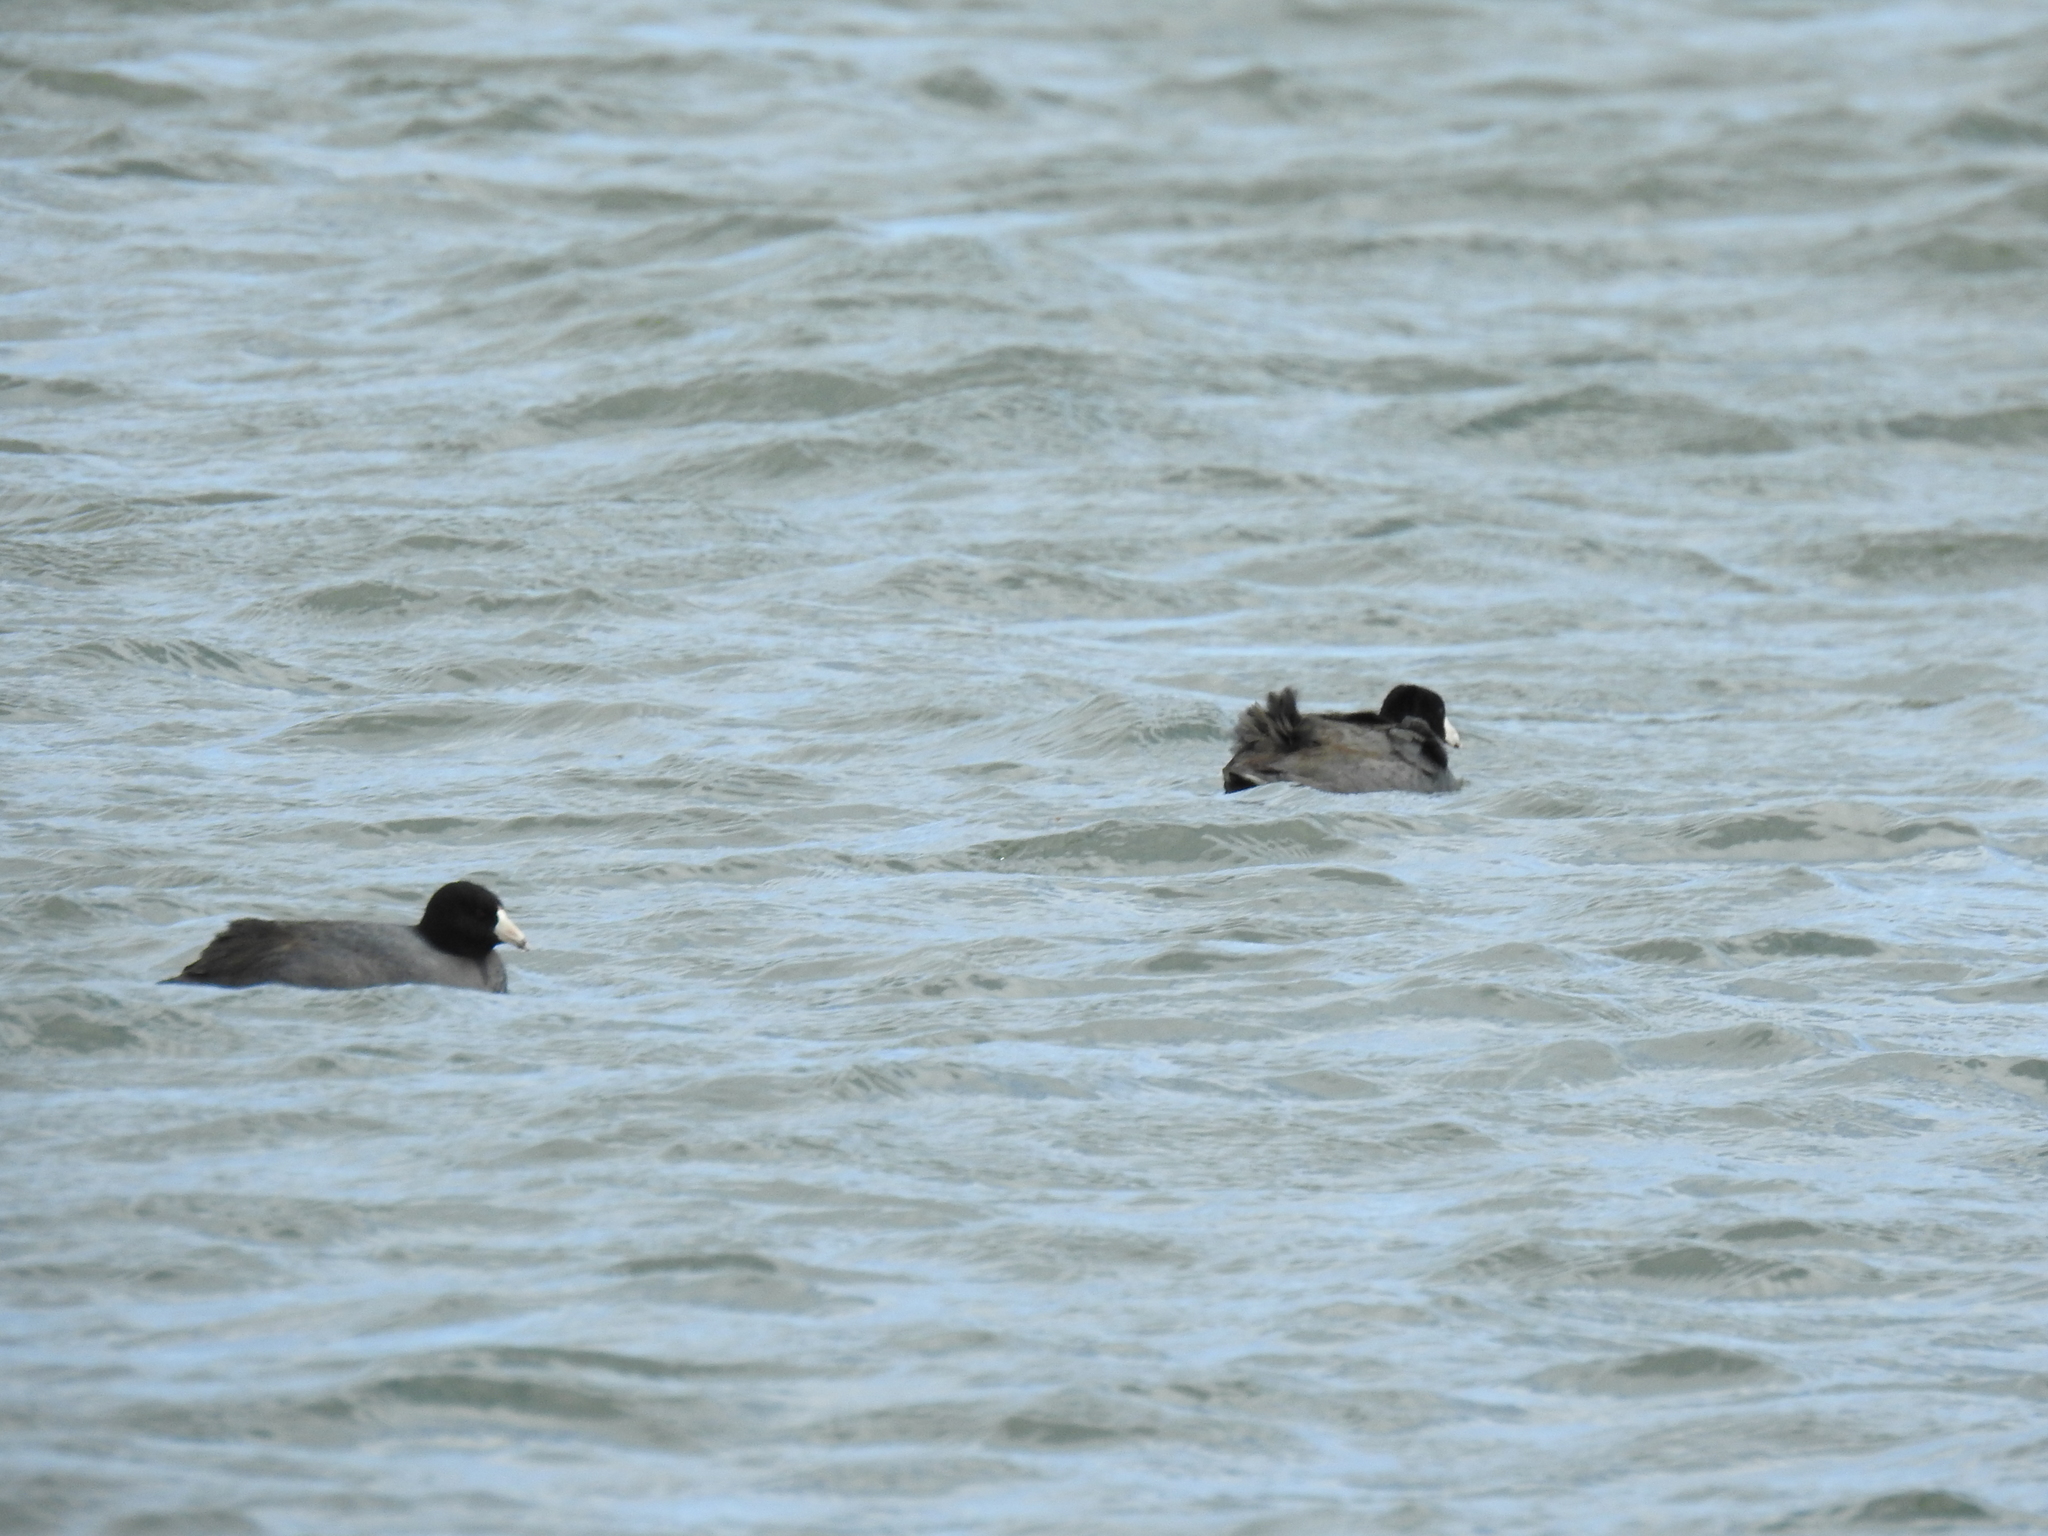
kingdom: Animalia
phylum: Chordata
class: Aves
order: Gruiformes
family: Rallidae
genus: Fulica
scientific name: Fulica americana
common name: American coot
